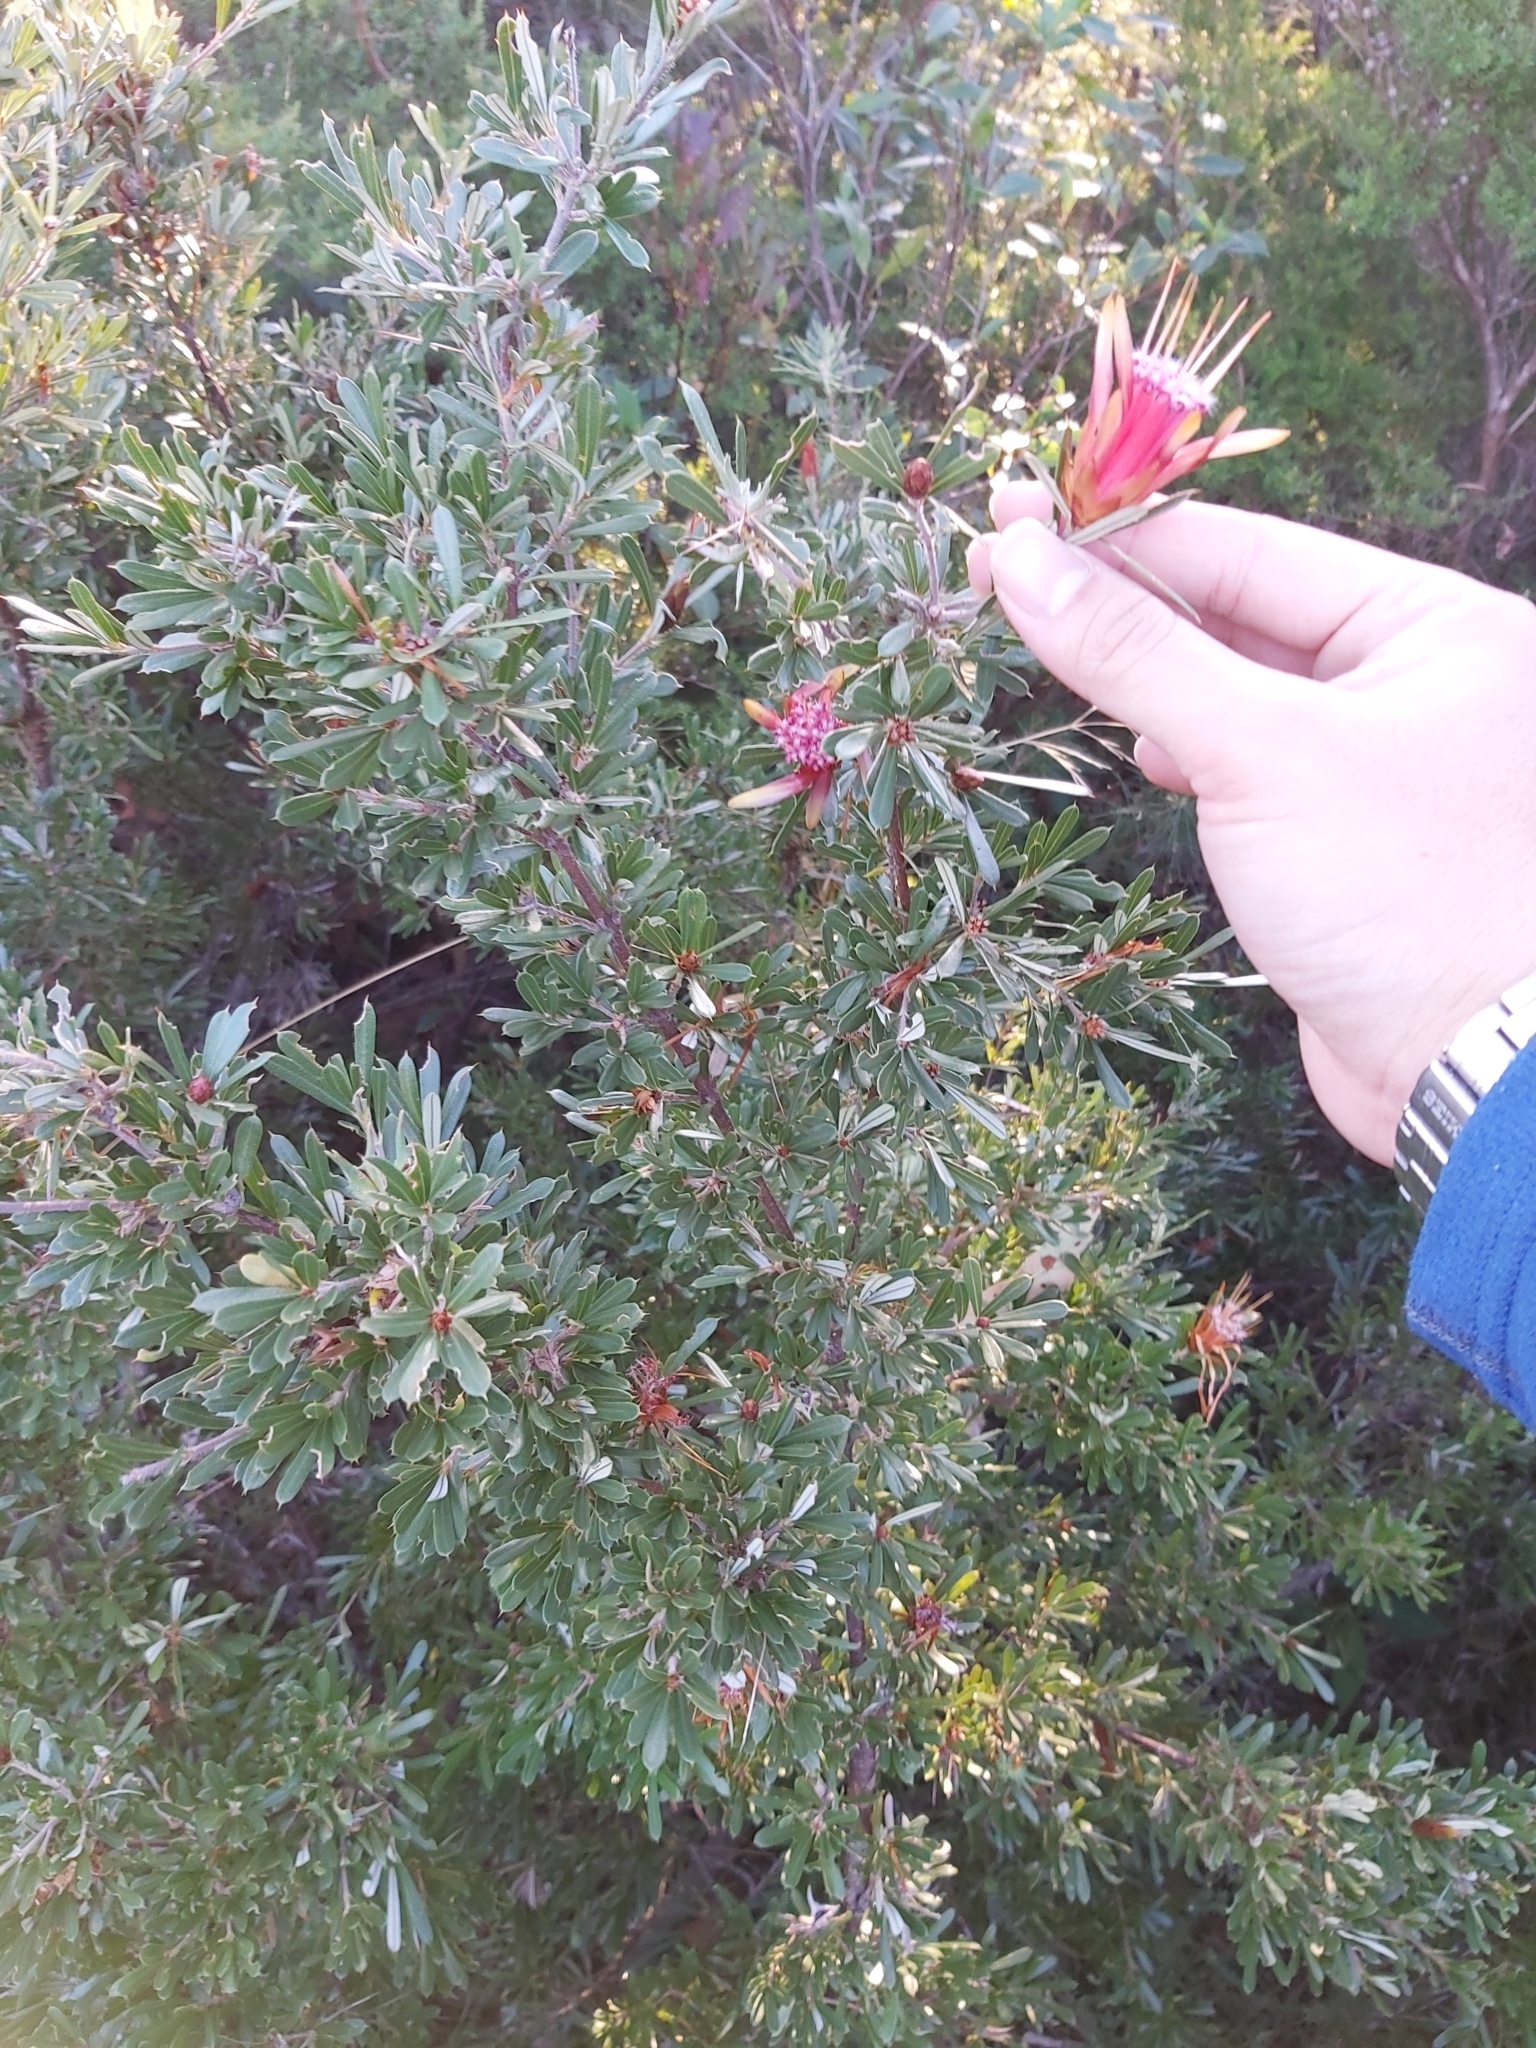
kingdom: Plantae
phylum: Tracheophyta
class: Magnoliopsida
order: Proteales
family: Proteaceae
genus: Lambertia
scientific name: Lambertia formosa
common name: Mountain-devil
